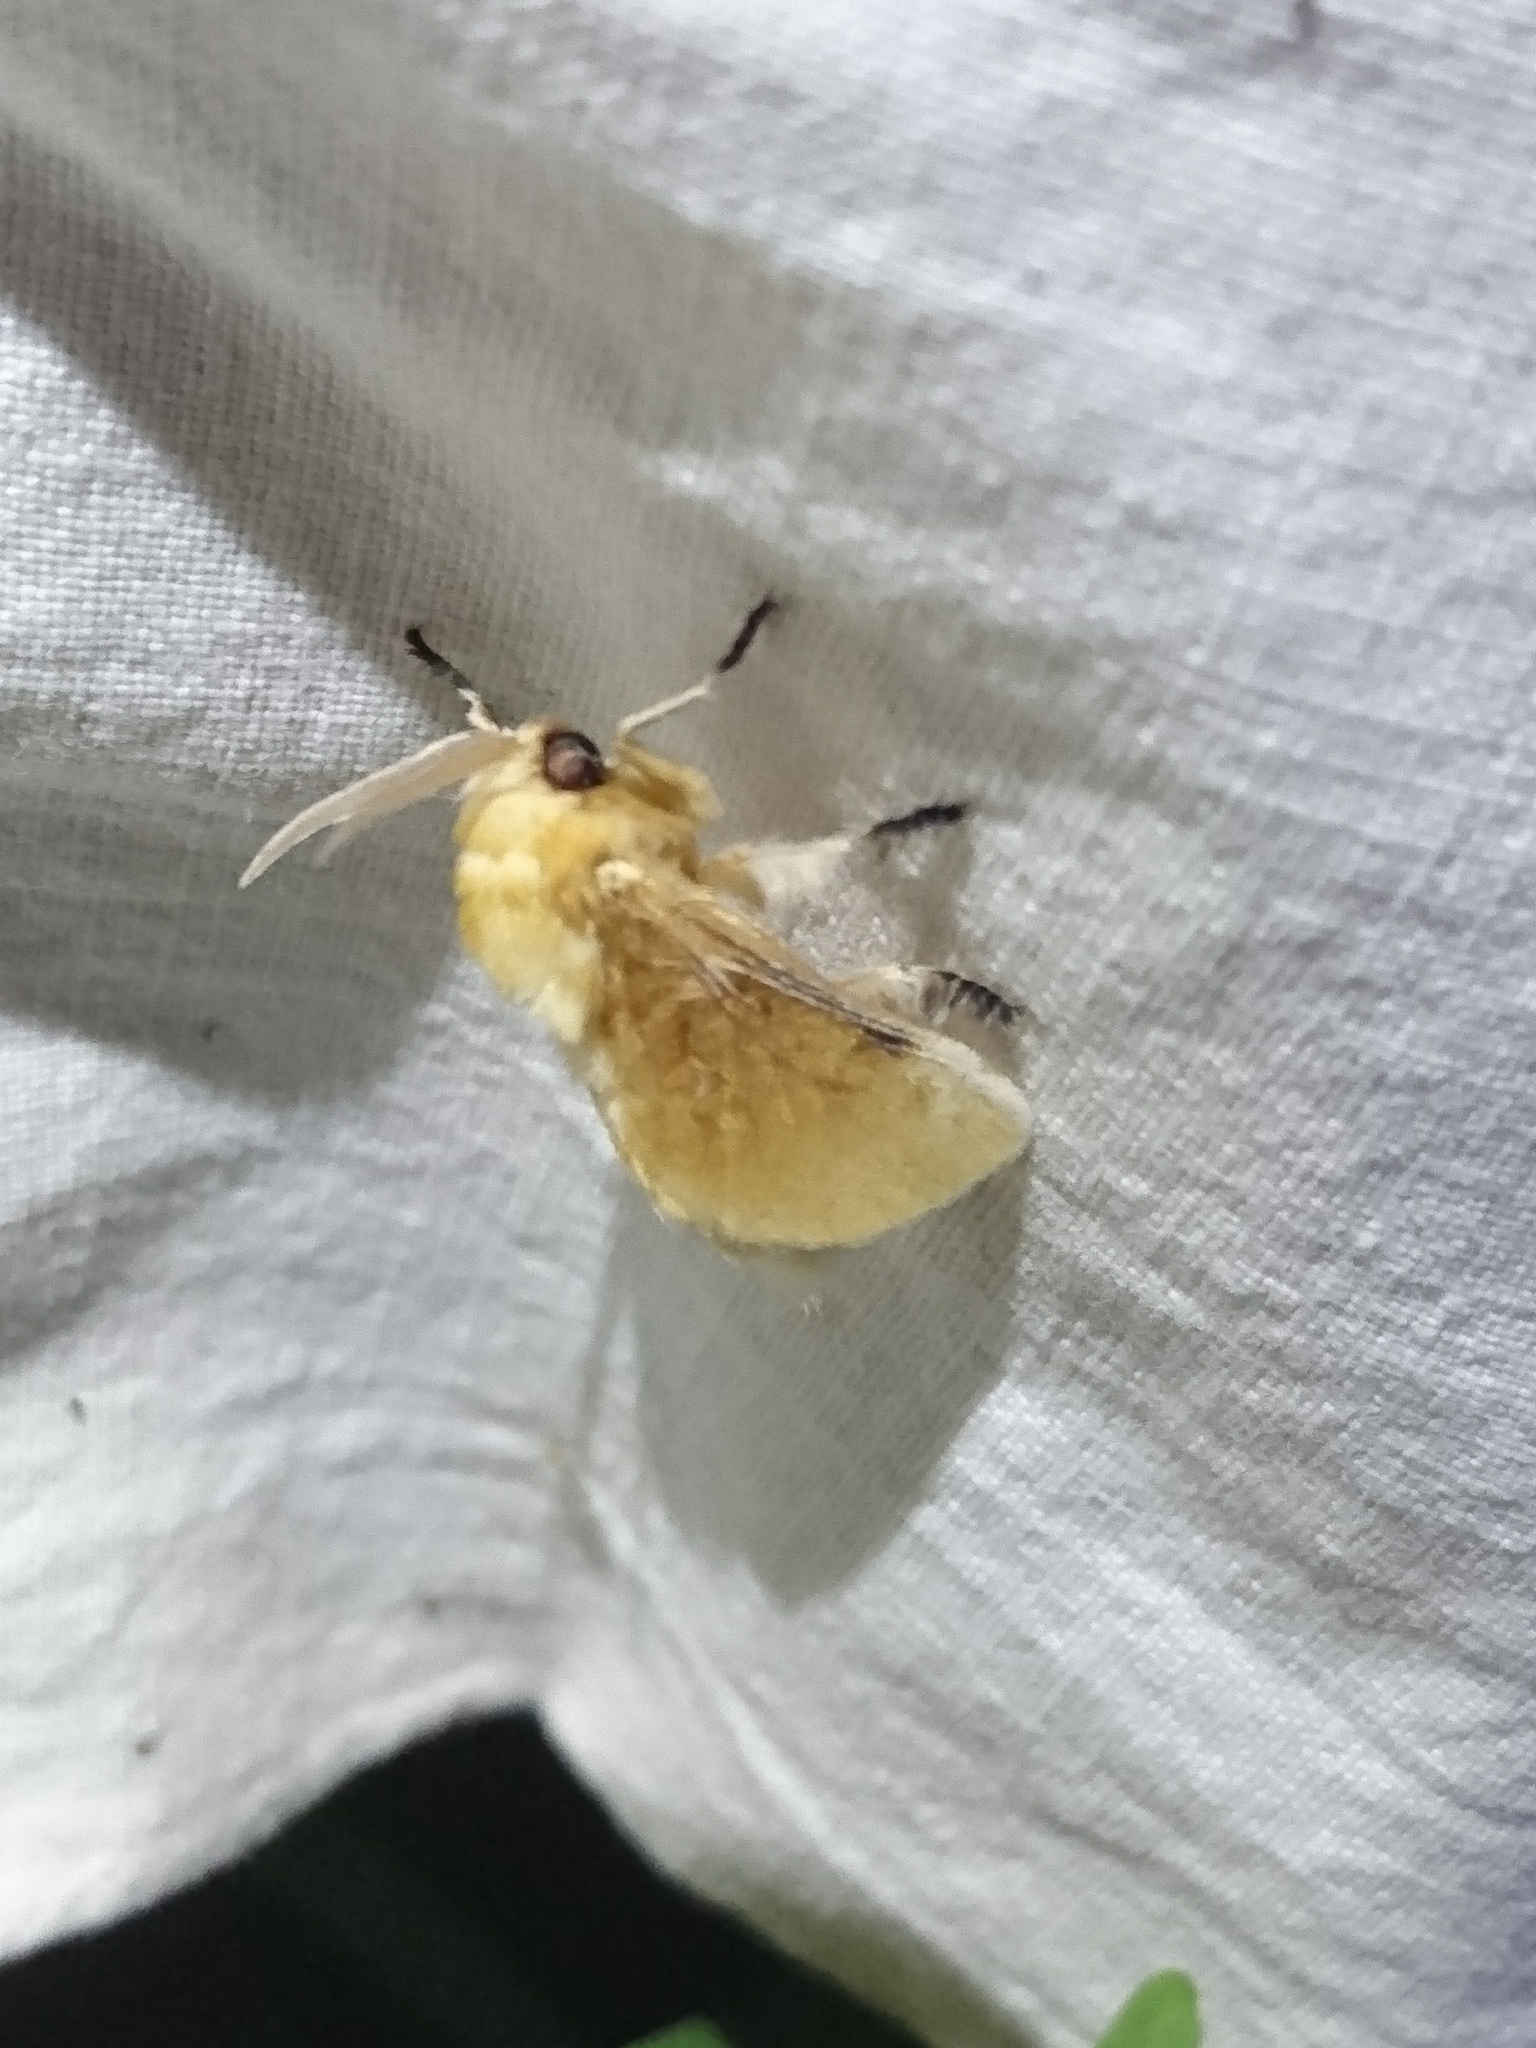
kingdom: Animalia
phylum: Arthropoda
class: Insecta
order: Lepidoptera
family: Megalopygidae
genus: Megalopyge
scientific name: Megalopyge opercularis
